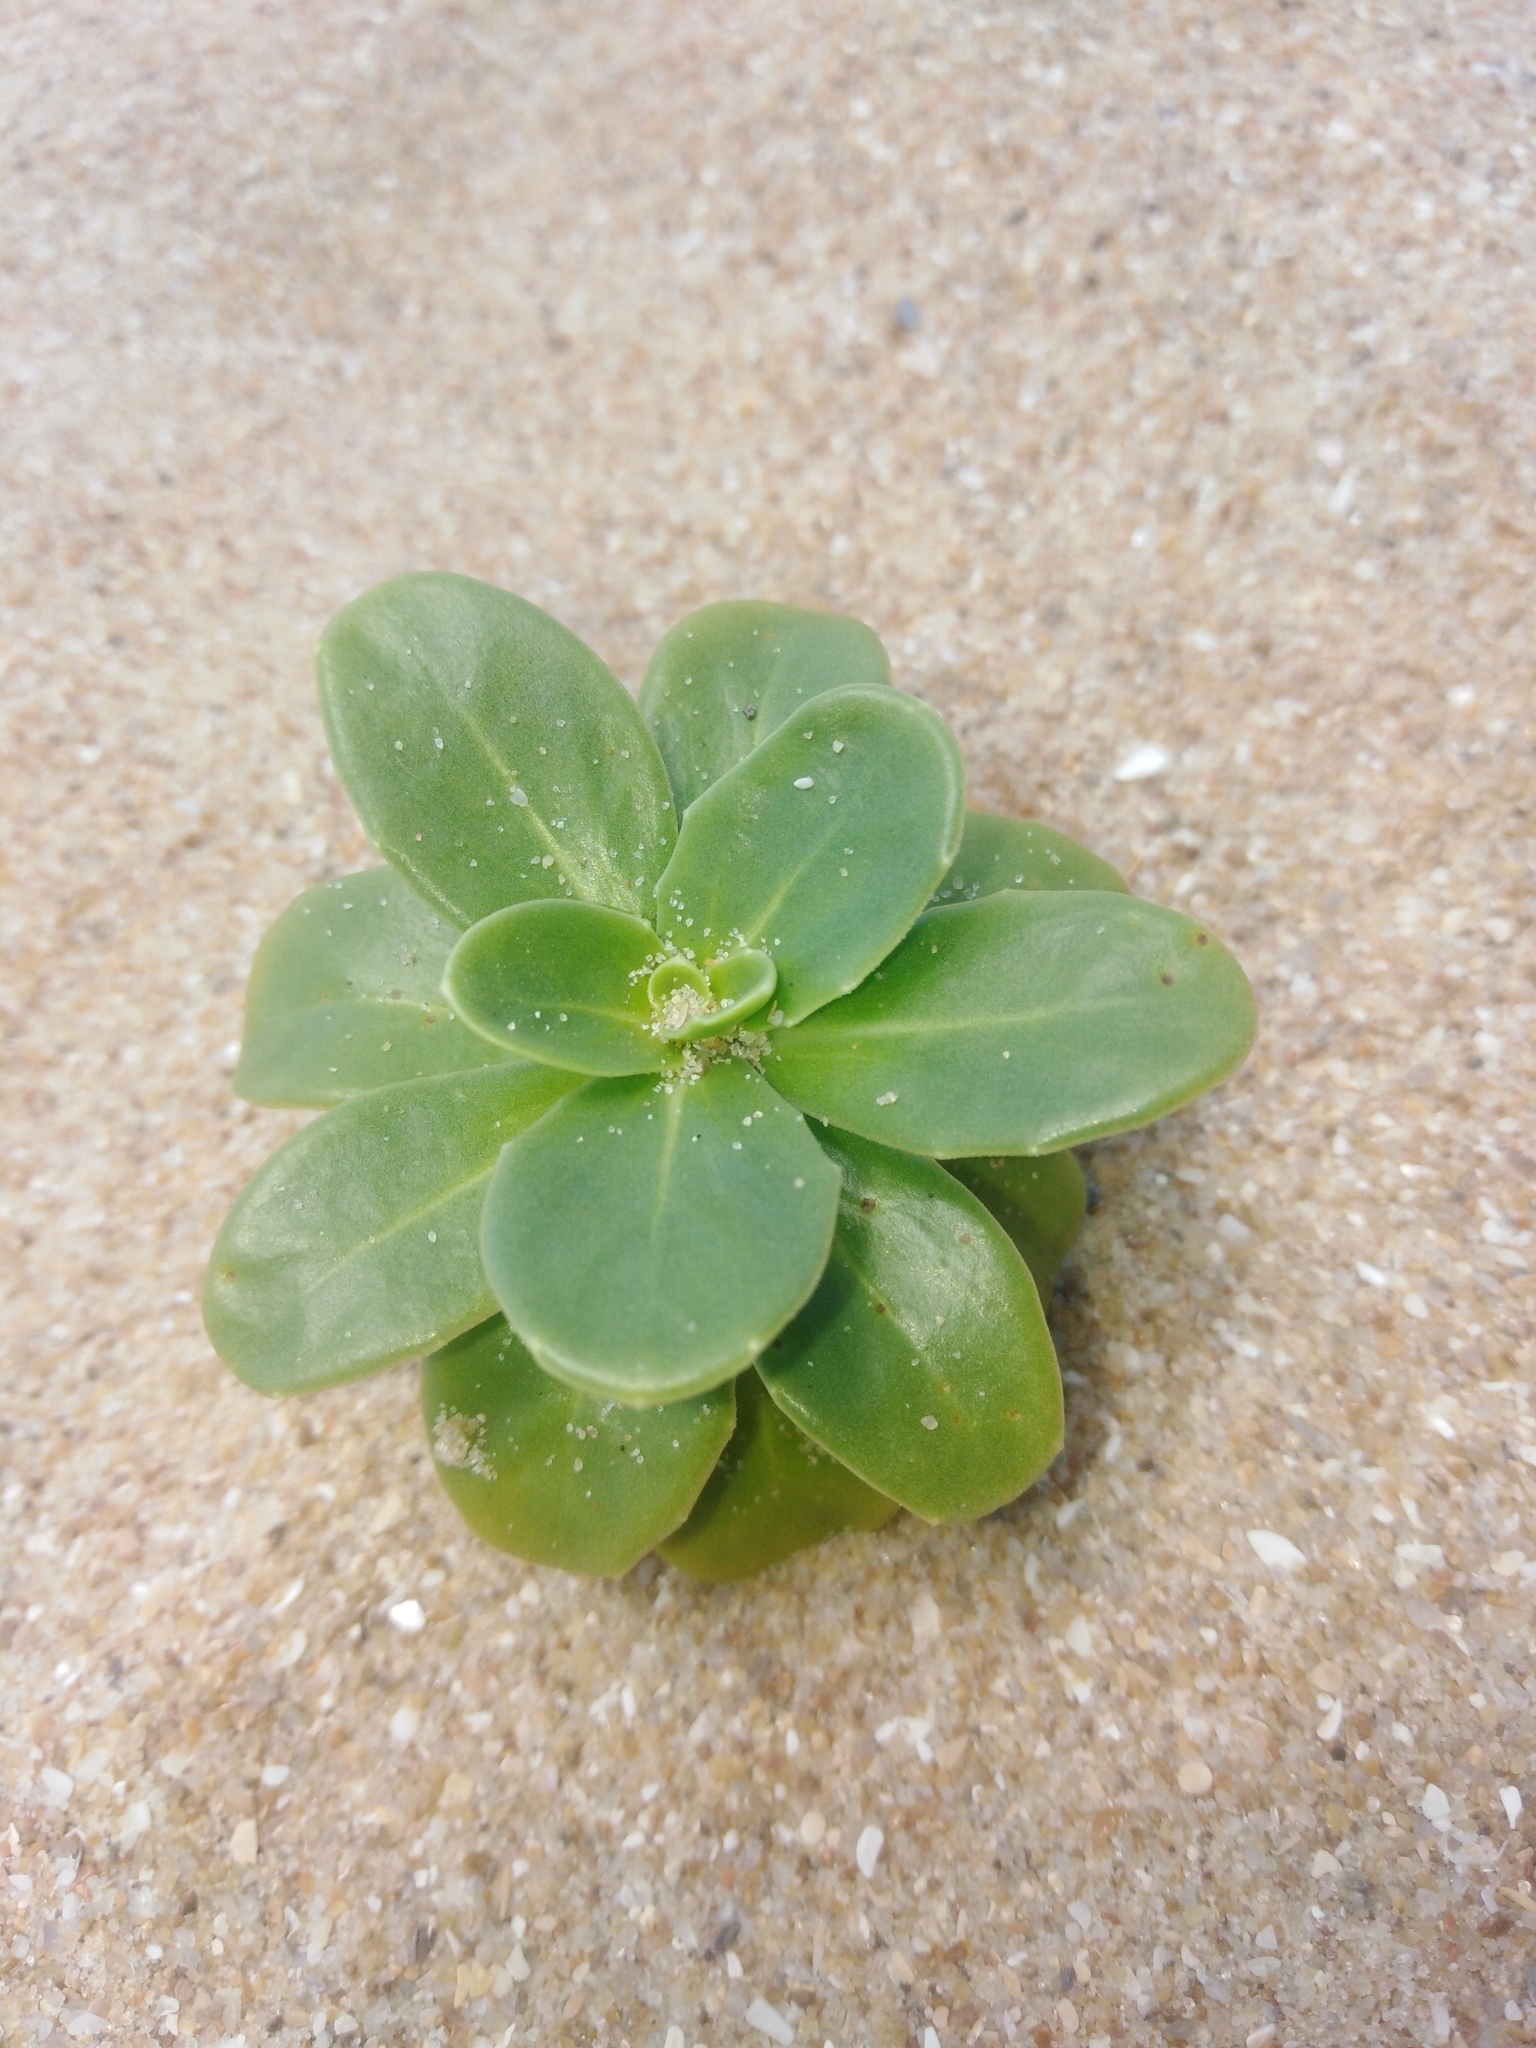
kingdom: Plantae
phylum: Tracheophyta
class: Magnoliopsida
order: Asterales
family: Calyceraceae
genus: Calycera
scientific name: Calycera crassifolia
